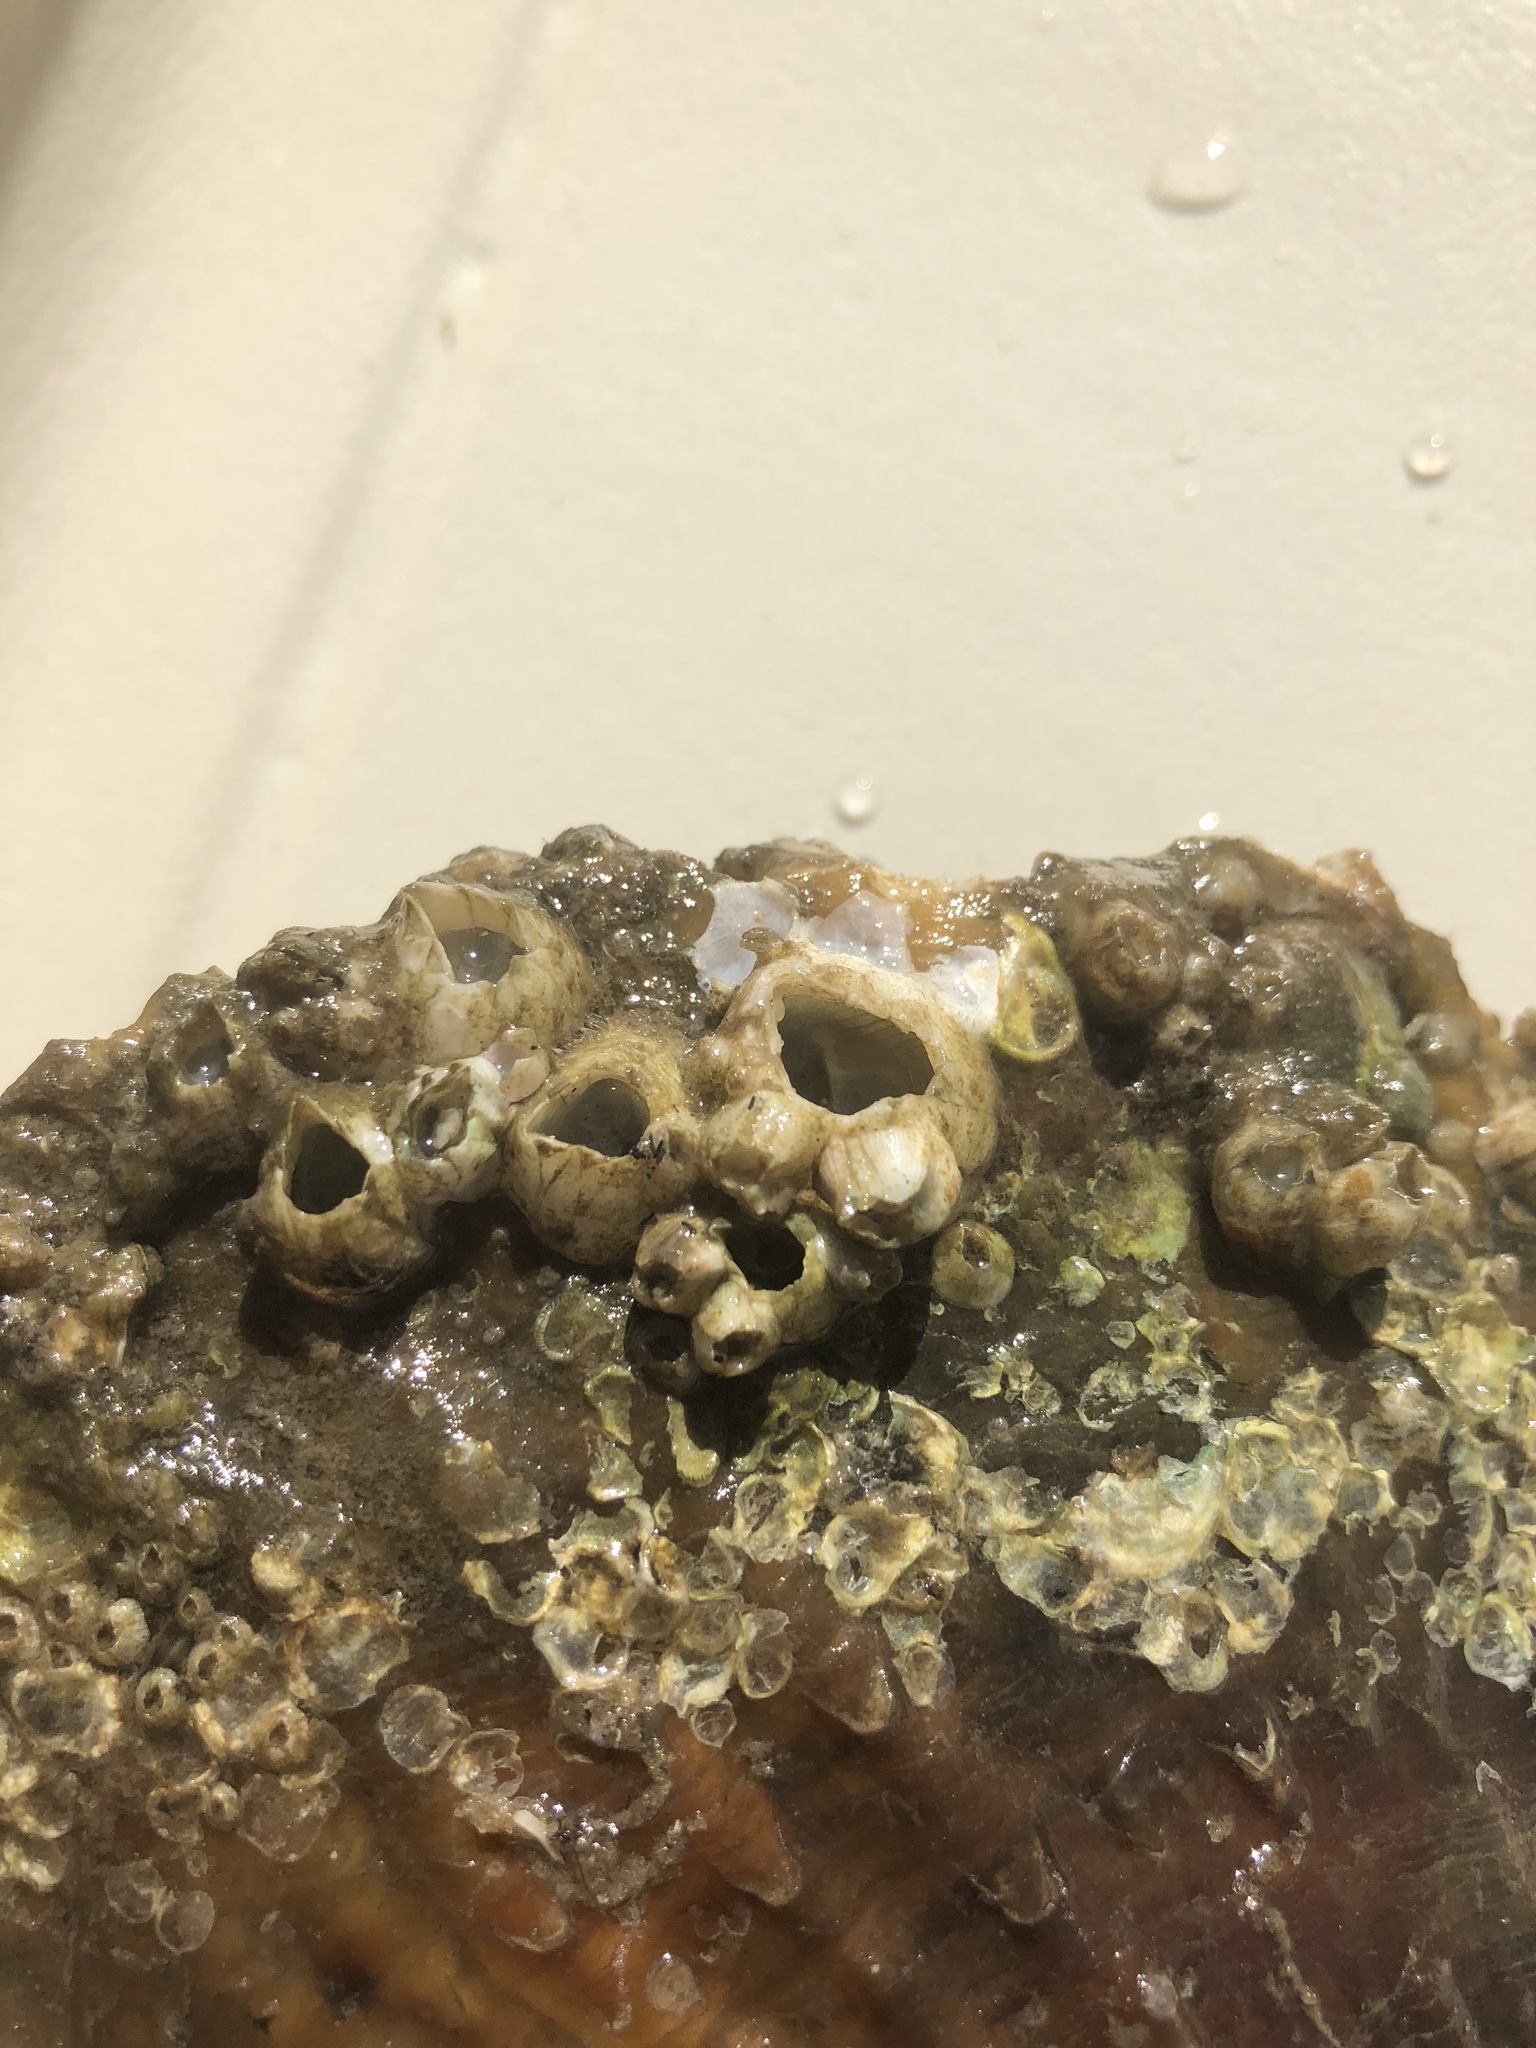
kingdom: Animalia
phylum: Arthropoda
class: Maxillopoda
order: Sessilia
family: Balanidae
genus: Amphibalanus
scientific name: Amphibalanus eburneus
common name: Ivory barnacle
